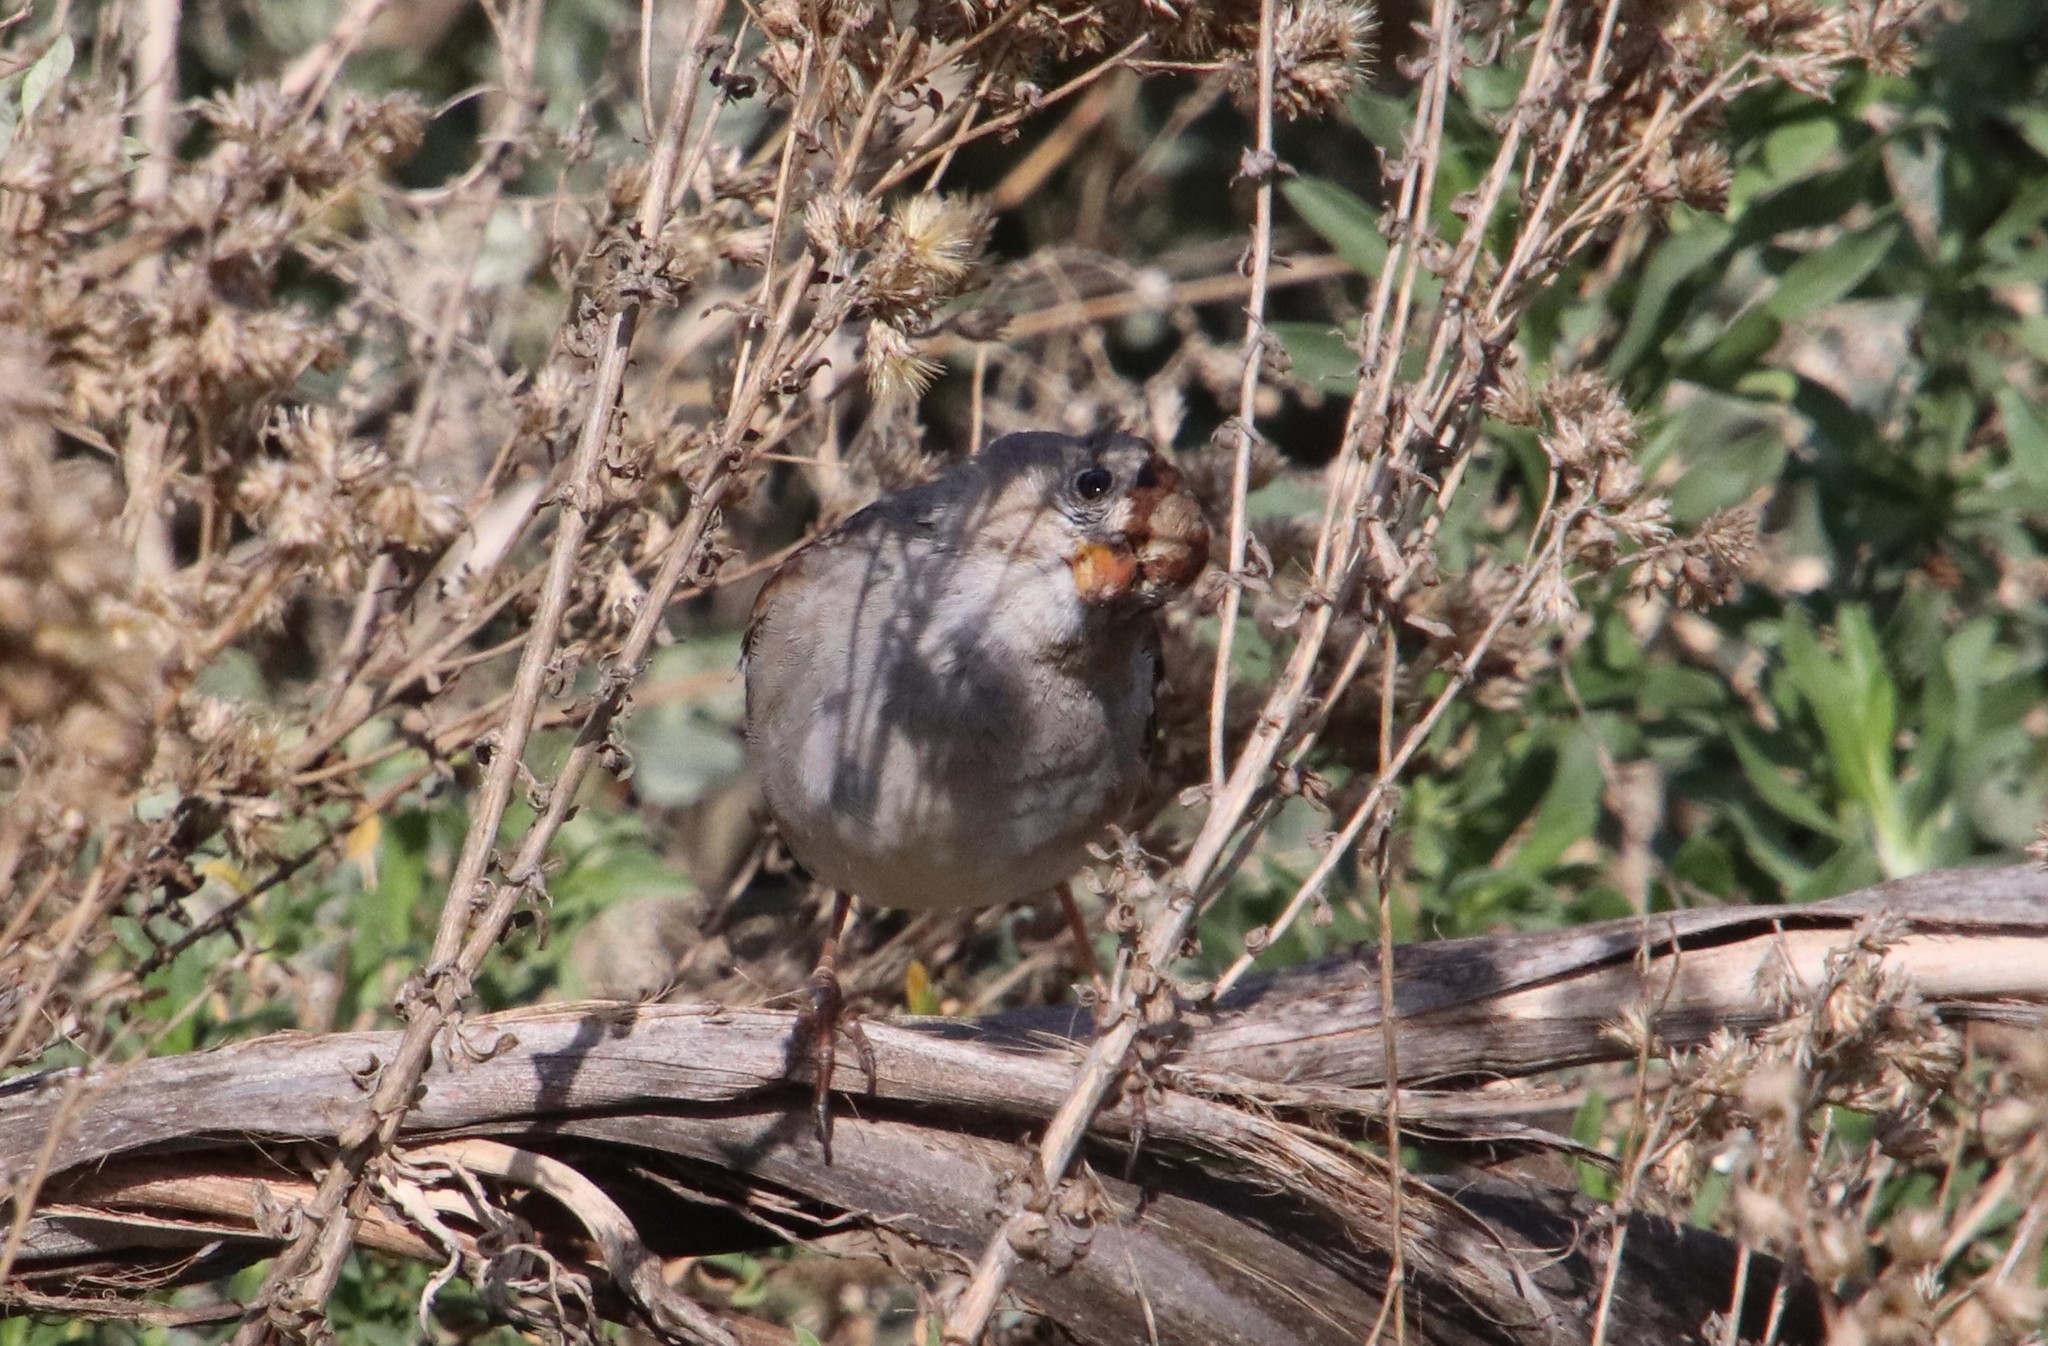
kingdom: Animalia
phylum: Chordata
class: Aves
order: Passeriformes
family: Passerellidae
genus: Zonotrichia
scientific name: Zonotrichia leucophrys
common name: White-crowned sparrow
